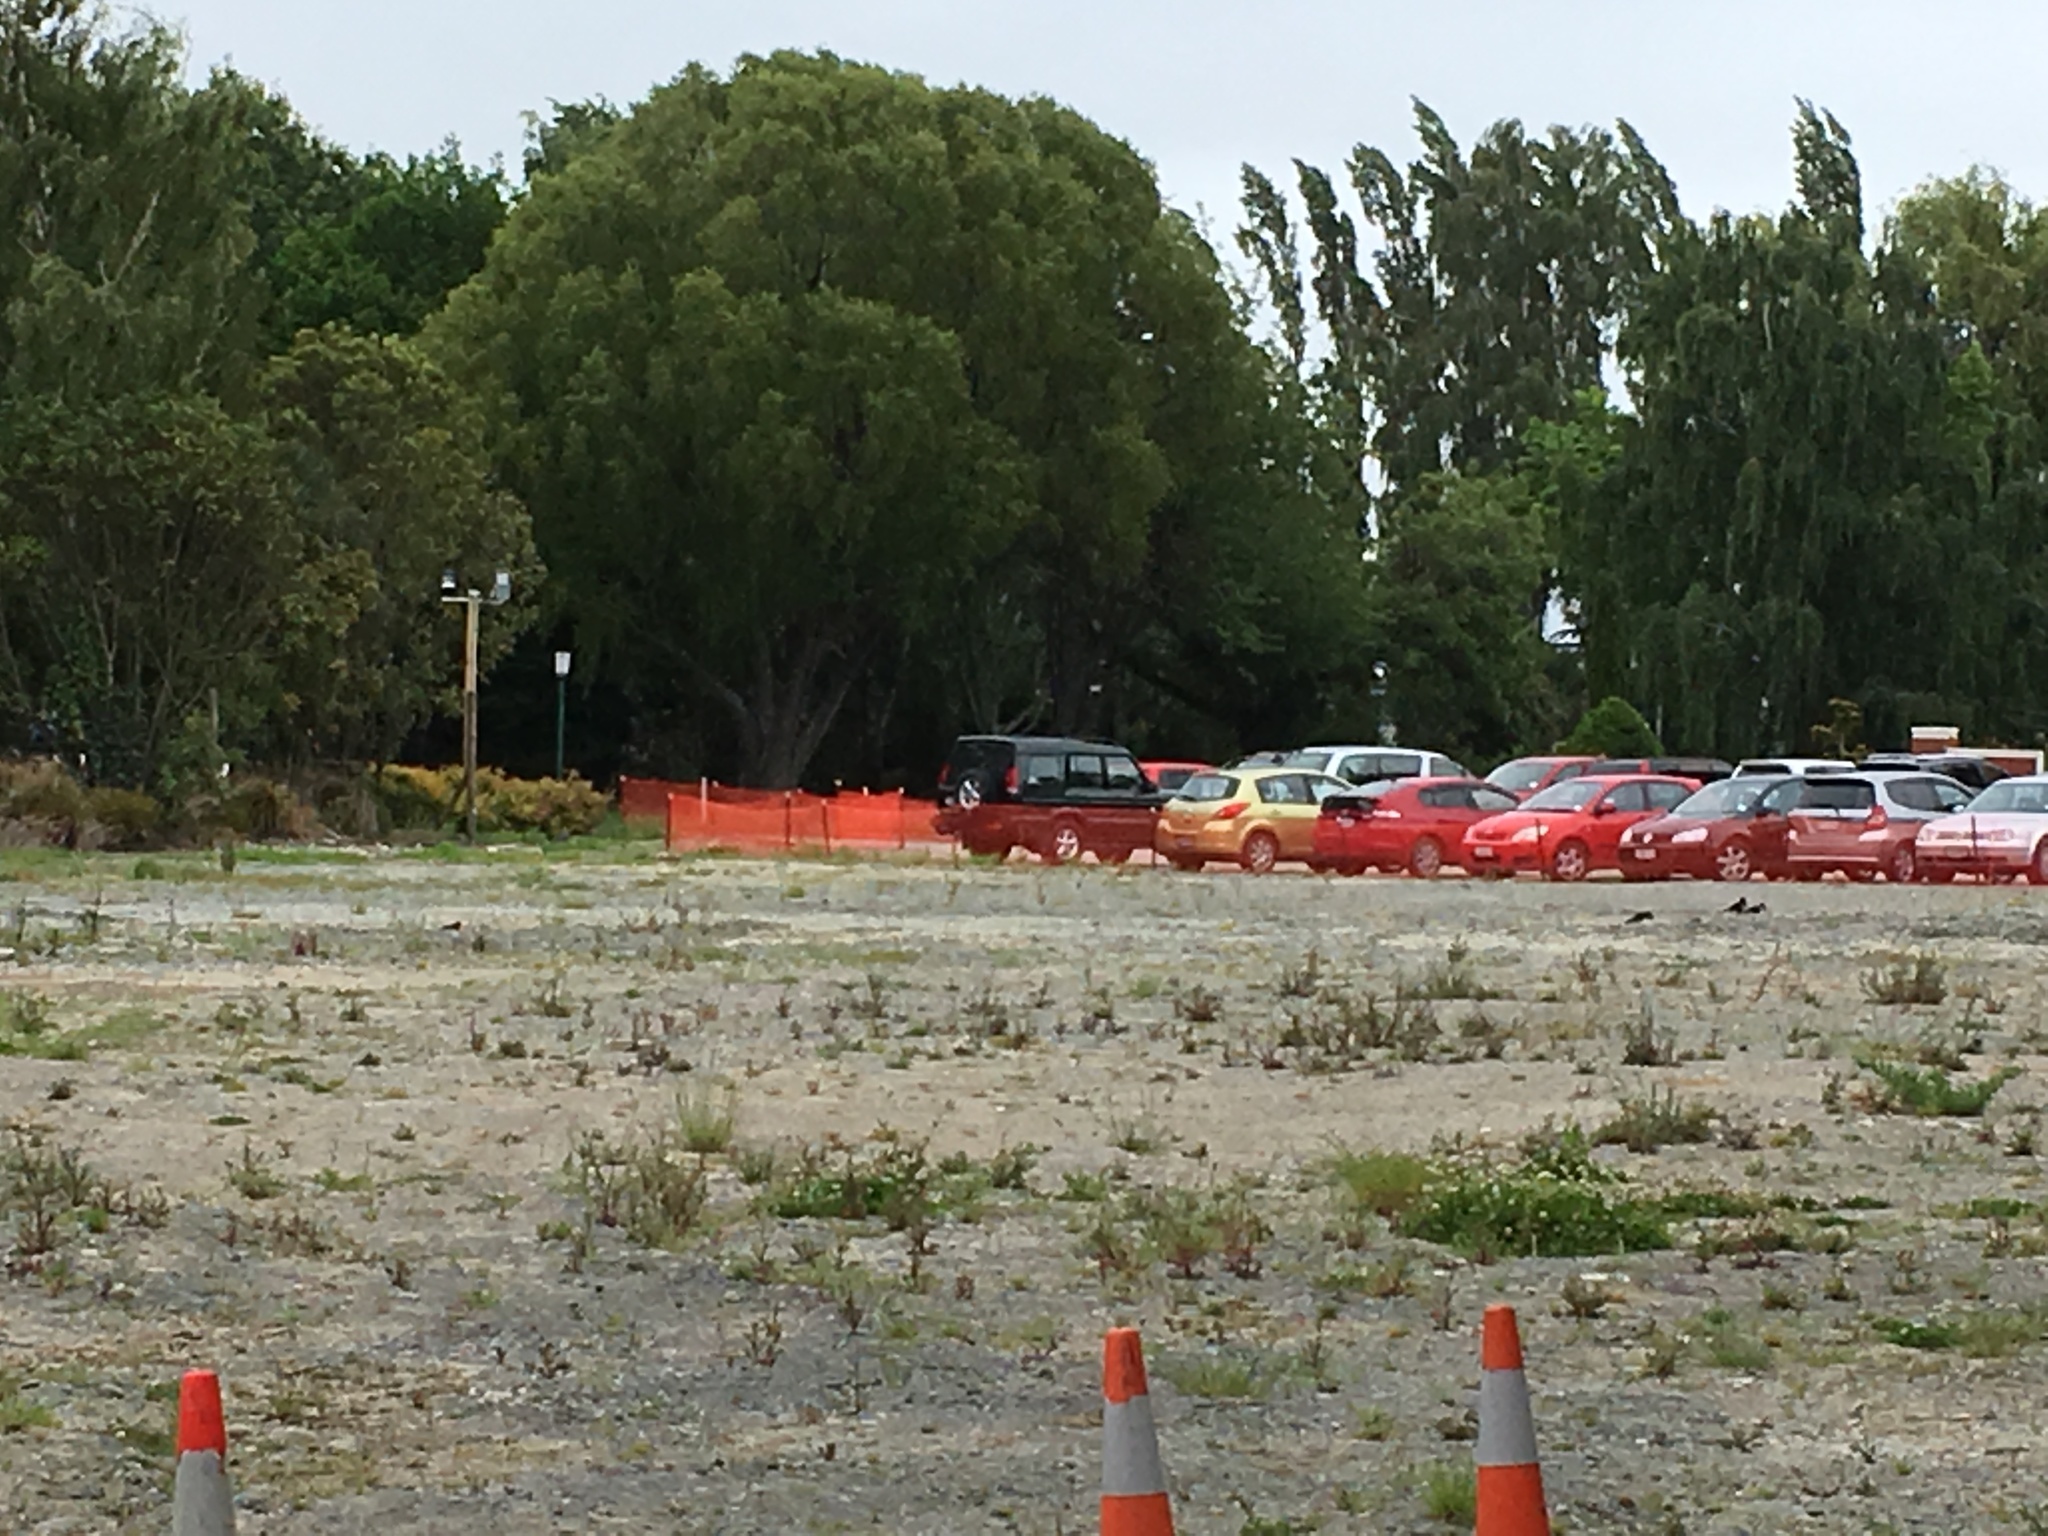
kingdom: Animalia
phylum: Chordata
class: Aves
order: Charadriiformes
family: Haematopodidae
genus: Haematopus
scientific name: Haematopus finschi
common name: South island oystercatcher
